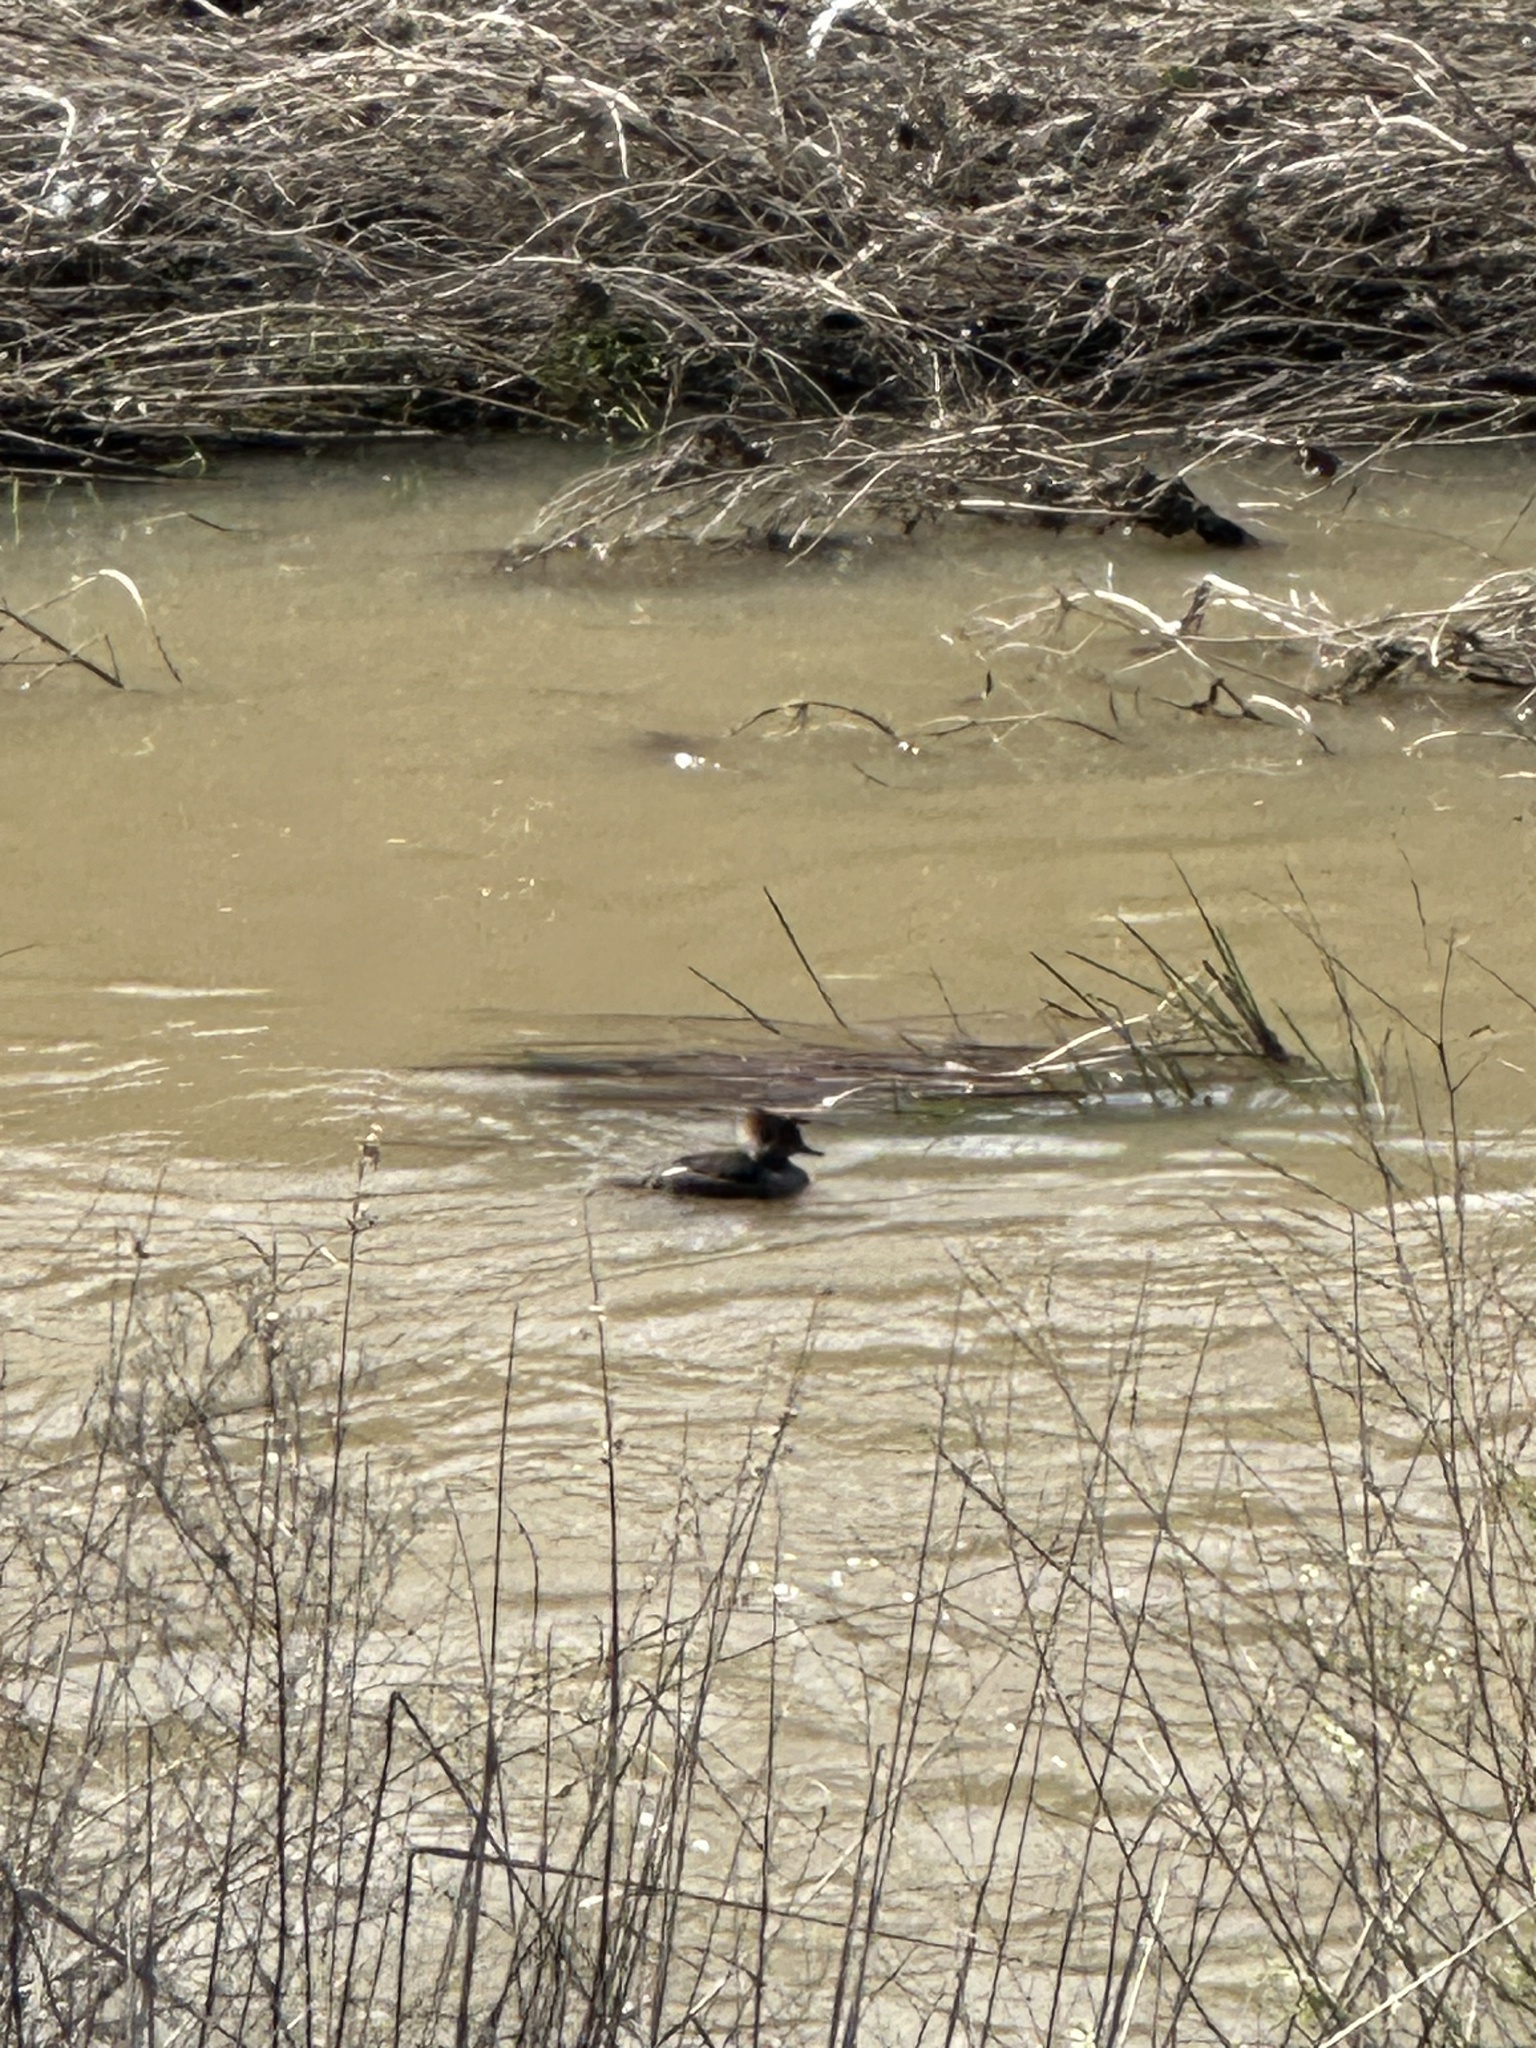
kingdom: Animalia
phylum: Chordata
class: Aves
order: Anseriformes
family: Anatidae
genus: Lophodytes
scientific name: Lophodytes cucullatus
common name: Hooded merganser
